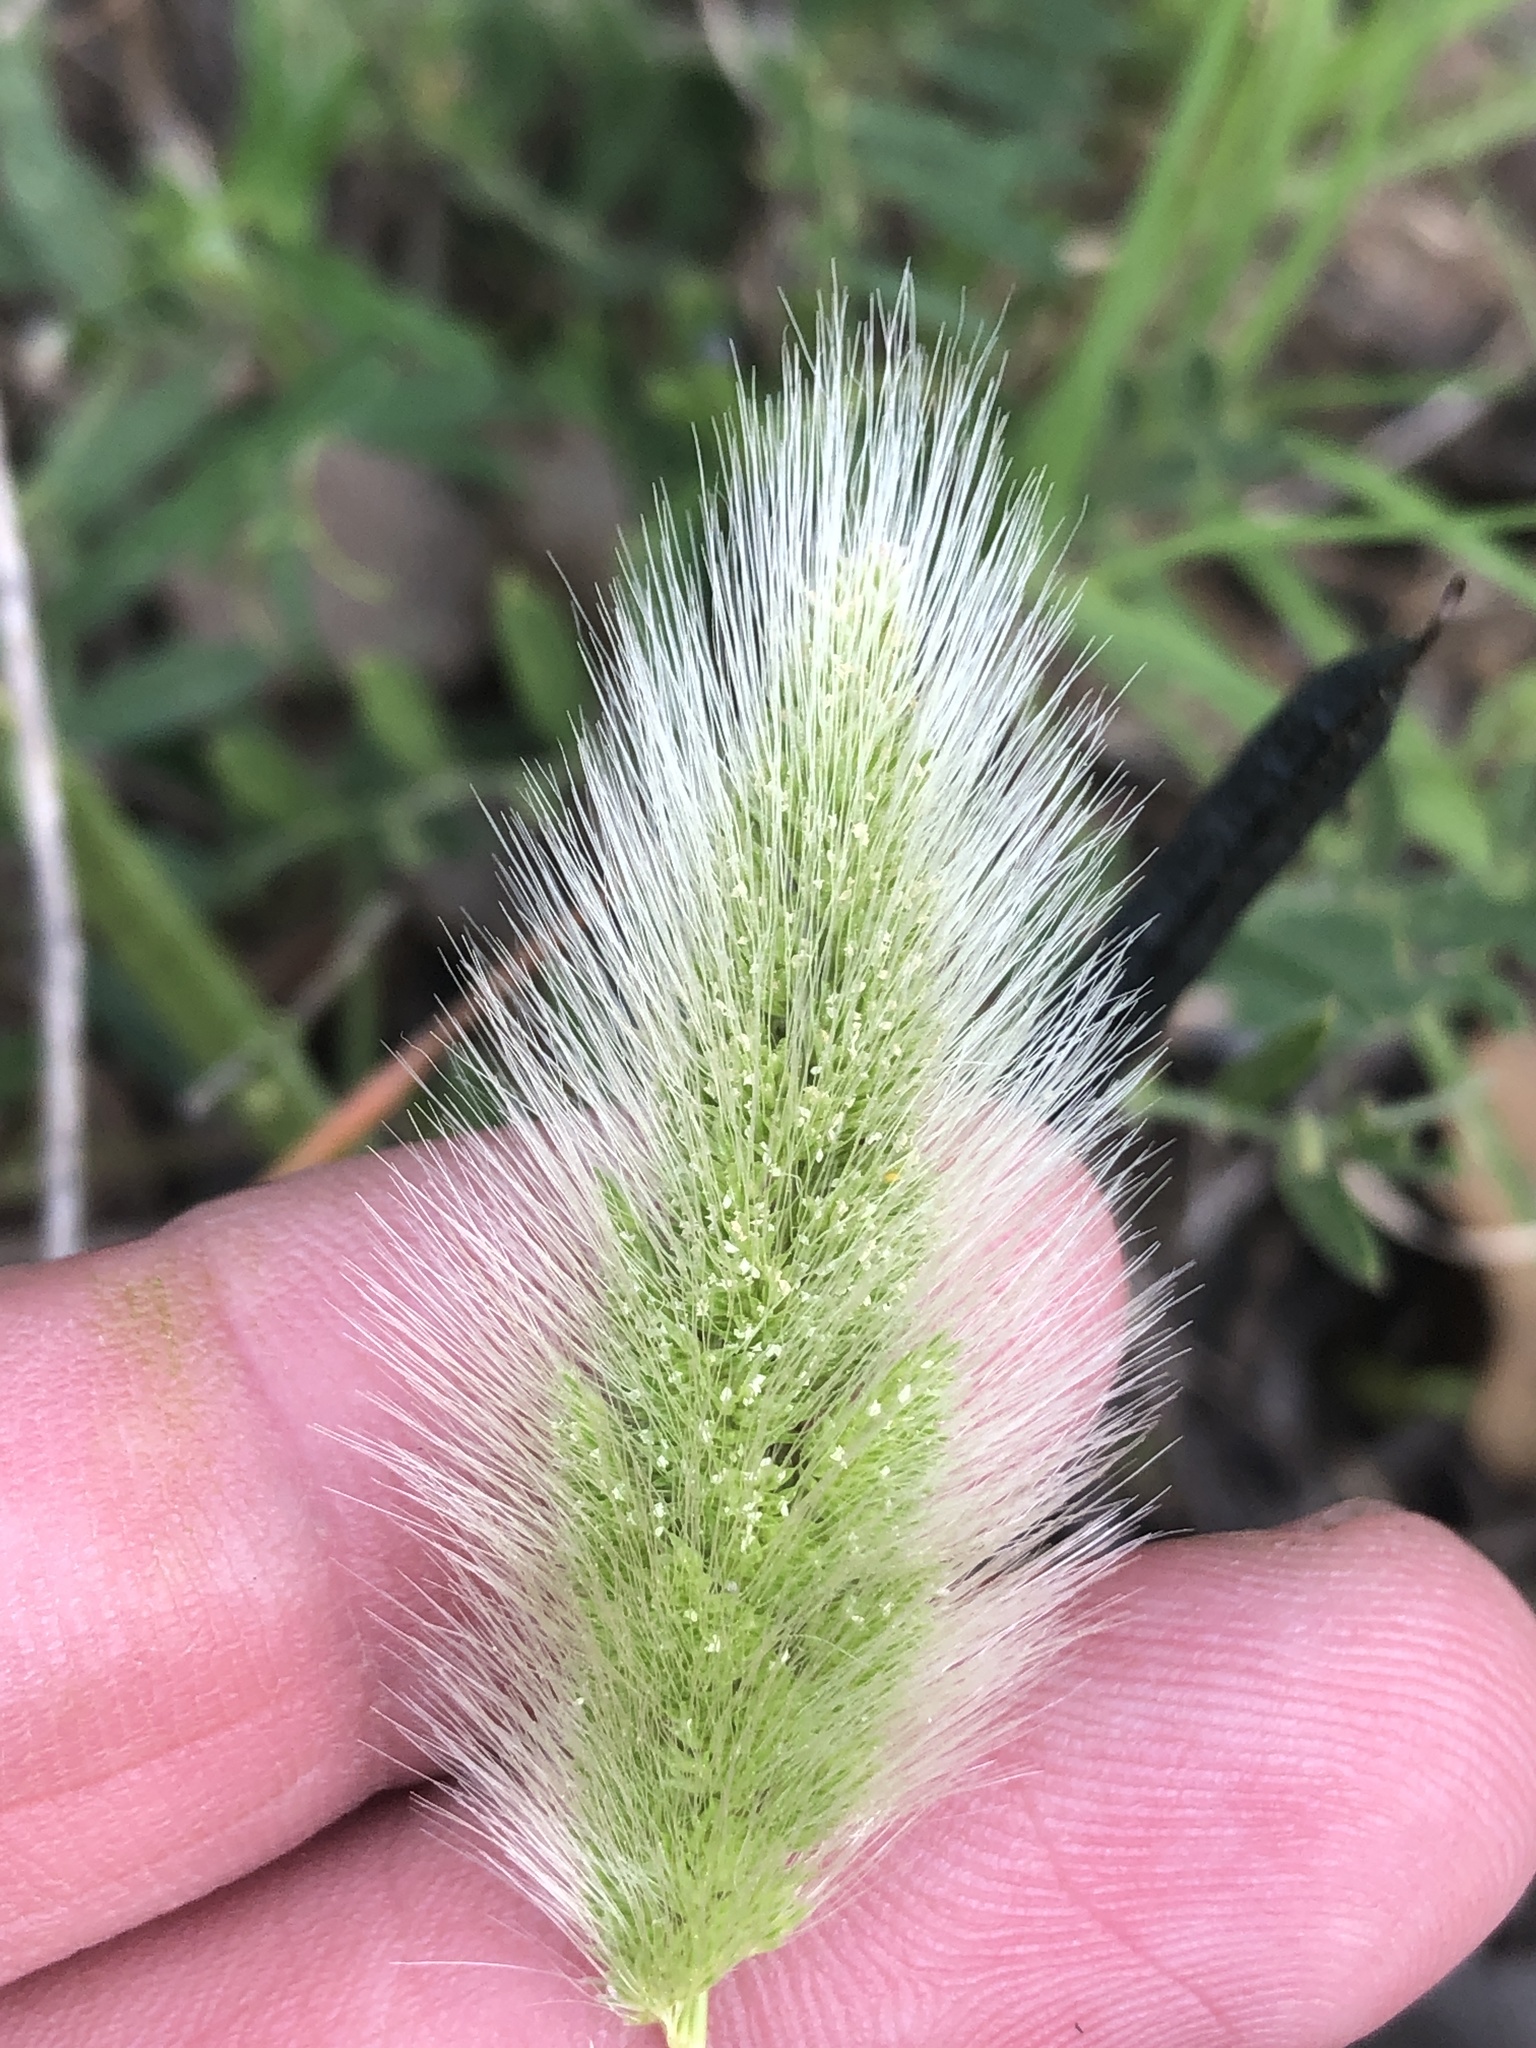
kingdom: Plantae
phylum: Tracheophyta
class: Liliopsida
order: Poales
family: Poaceae
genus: Polypogon
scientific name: Polypogon monspeliensis
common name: Annual rabbitsfoot grass
